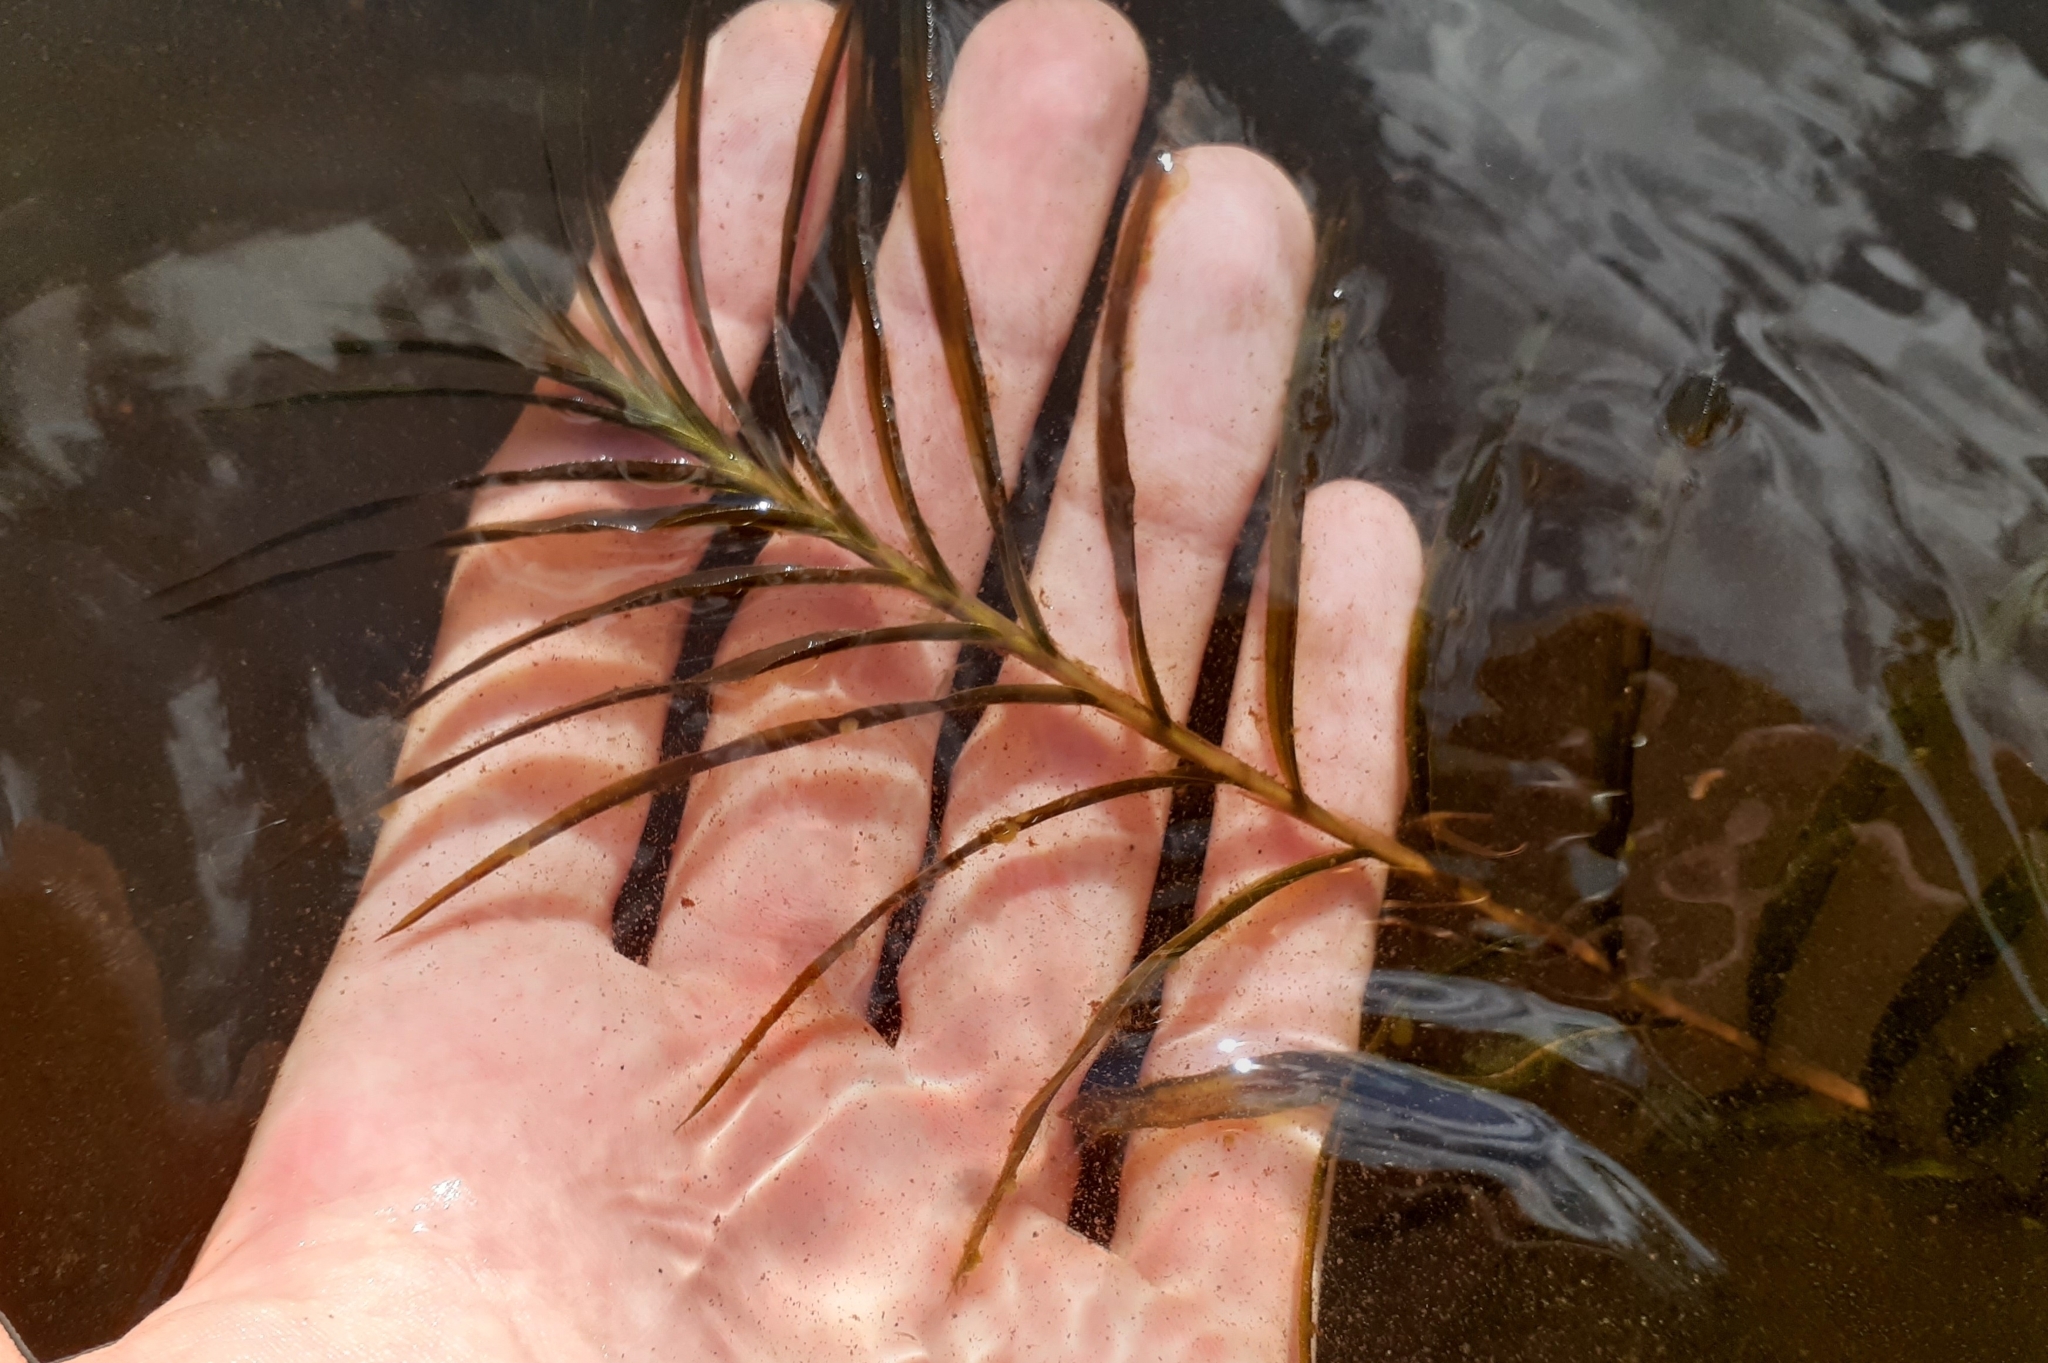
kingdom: Plantae
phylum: Tracheophyta
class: Liliopsida
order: Alismatales
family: Potamogetonaceae
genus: Potamogeton
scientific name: Potamogeton robbinsii
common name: Fern pondweed
